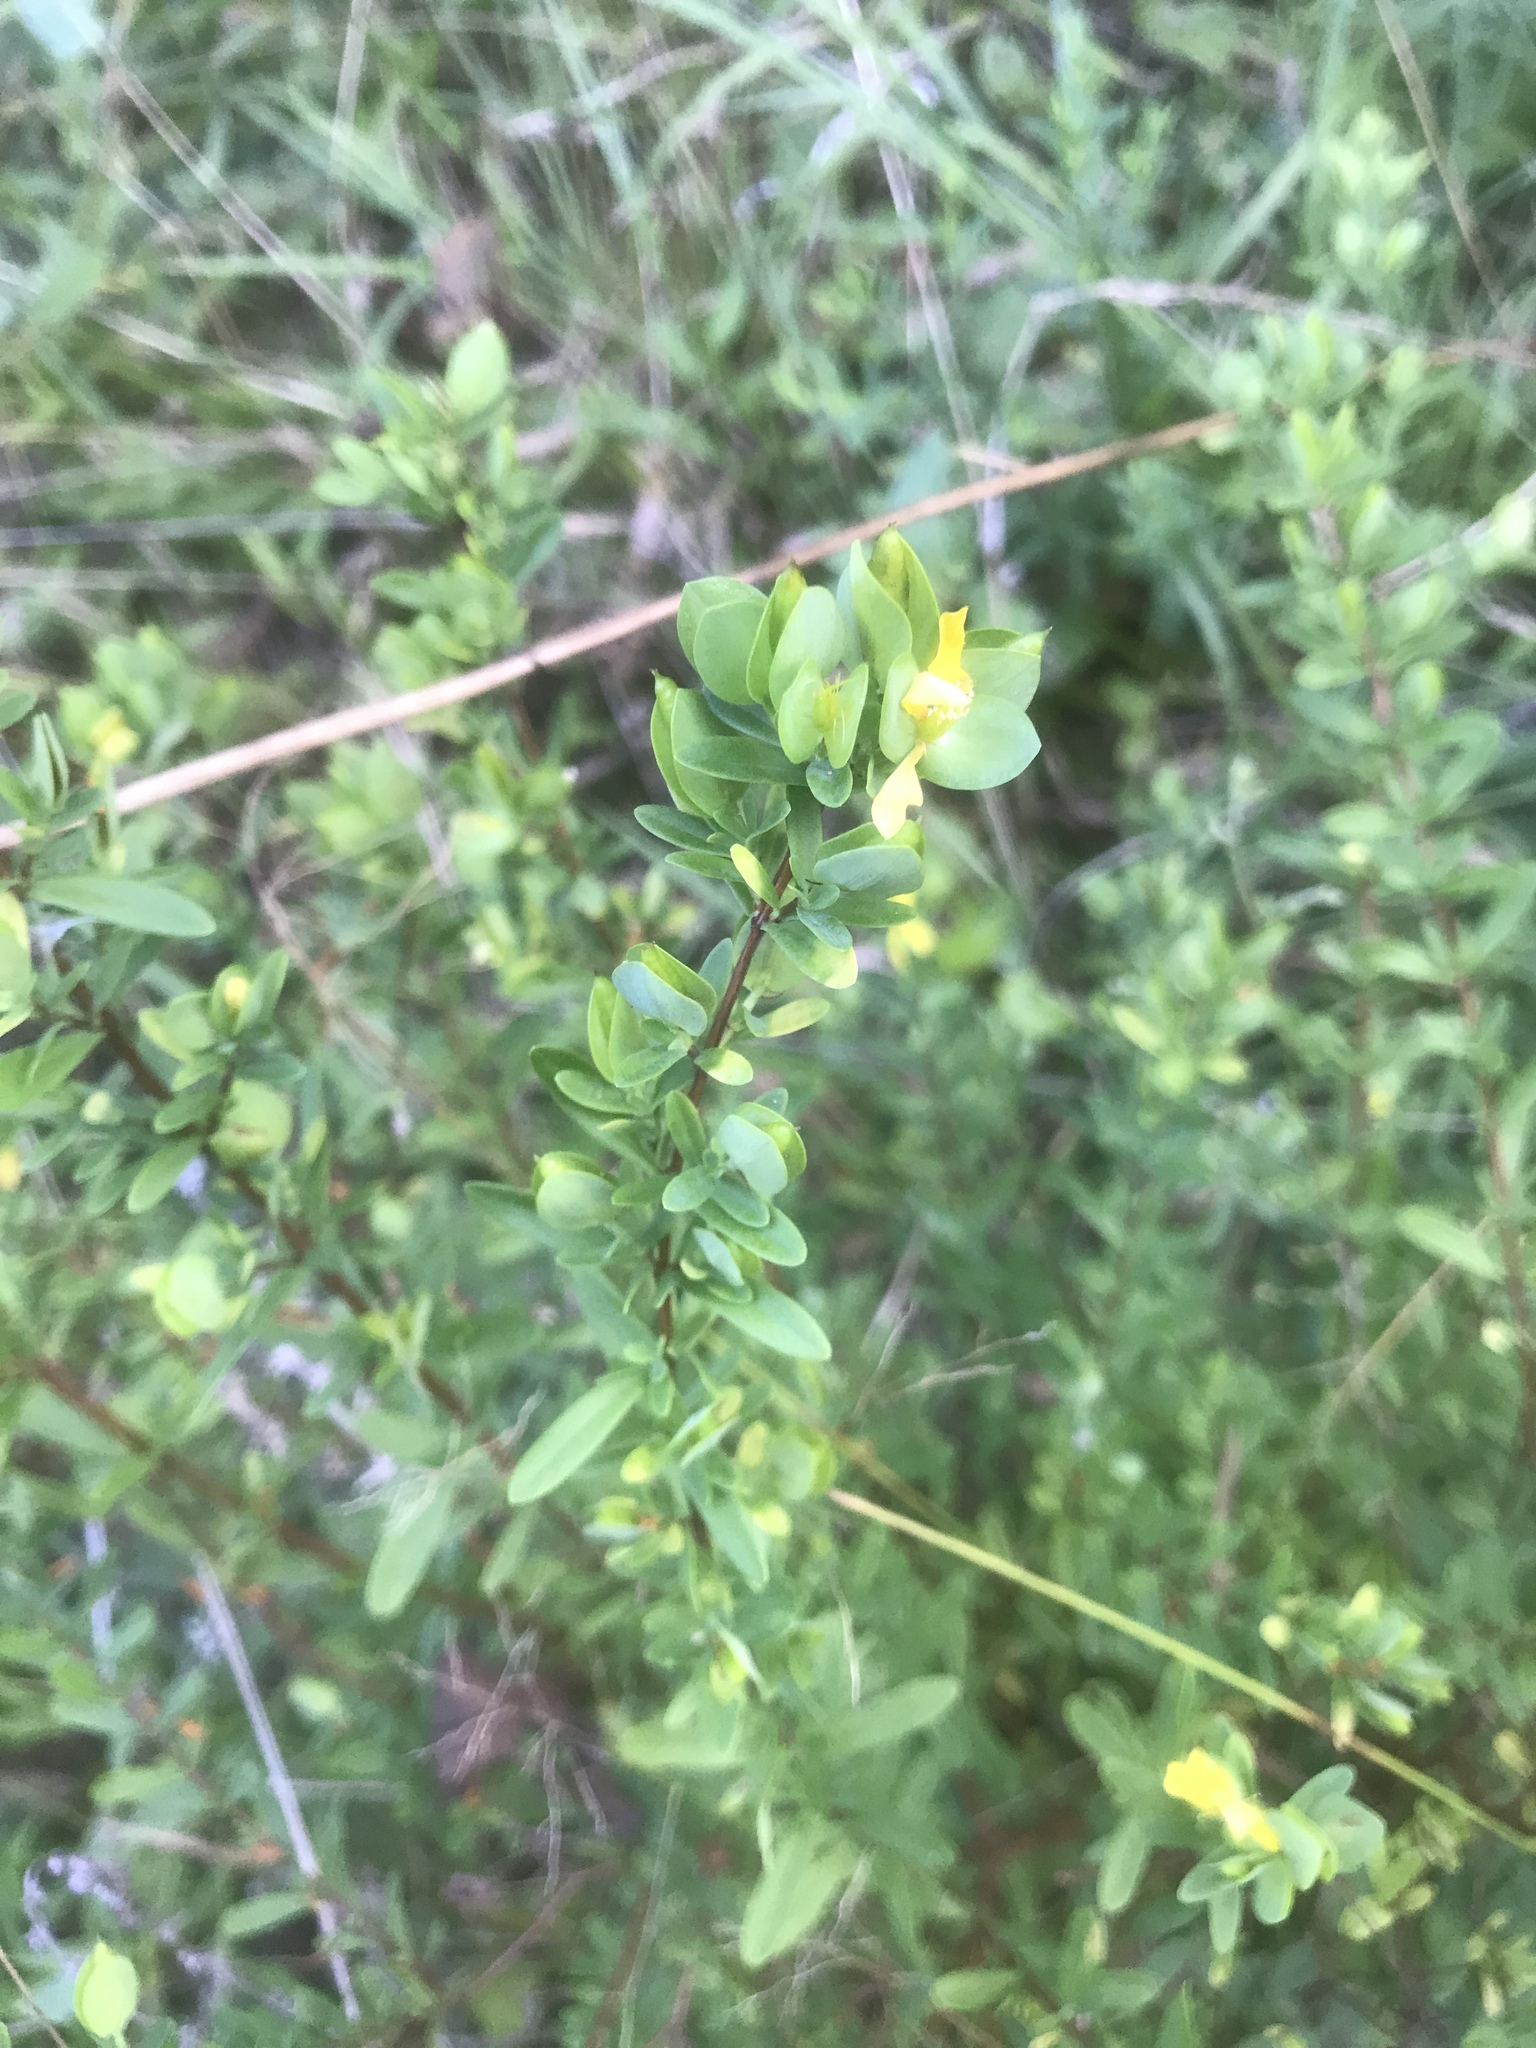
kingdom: Plantae
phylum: Tracheophyta
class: Magnoliopsida
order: Malpighiales
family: Hypericaceae
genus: Hypericum
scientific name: Hypericum hypericoides
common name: St. andrew's cross
